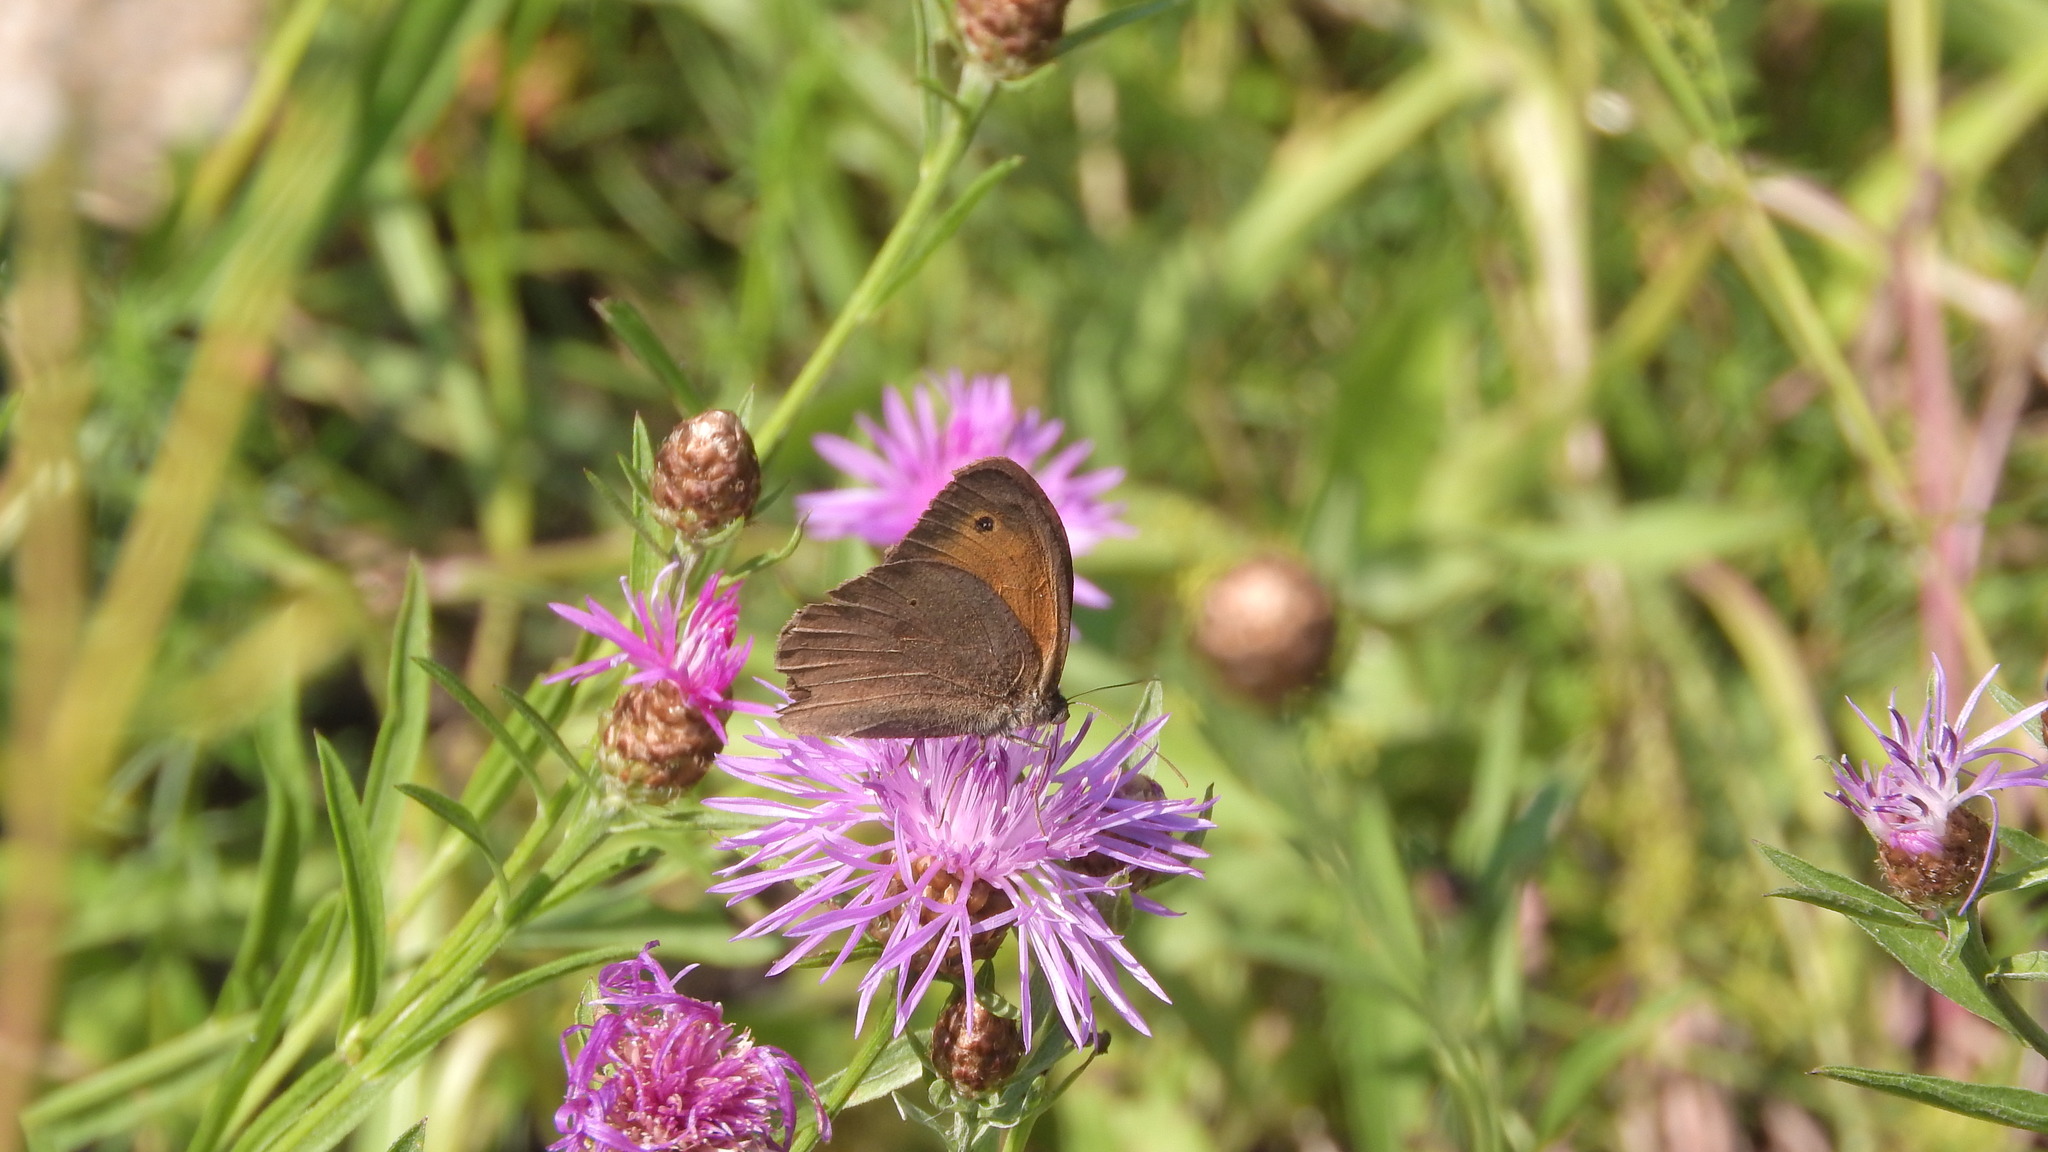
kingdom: Animalia
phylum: Arthropoda
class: Insecta
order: Lepidoptera
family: Nymphalidae
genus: Maniola
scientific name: Maniola jurtina
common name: Meadow brown
